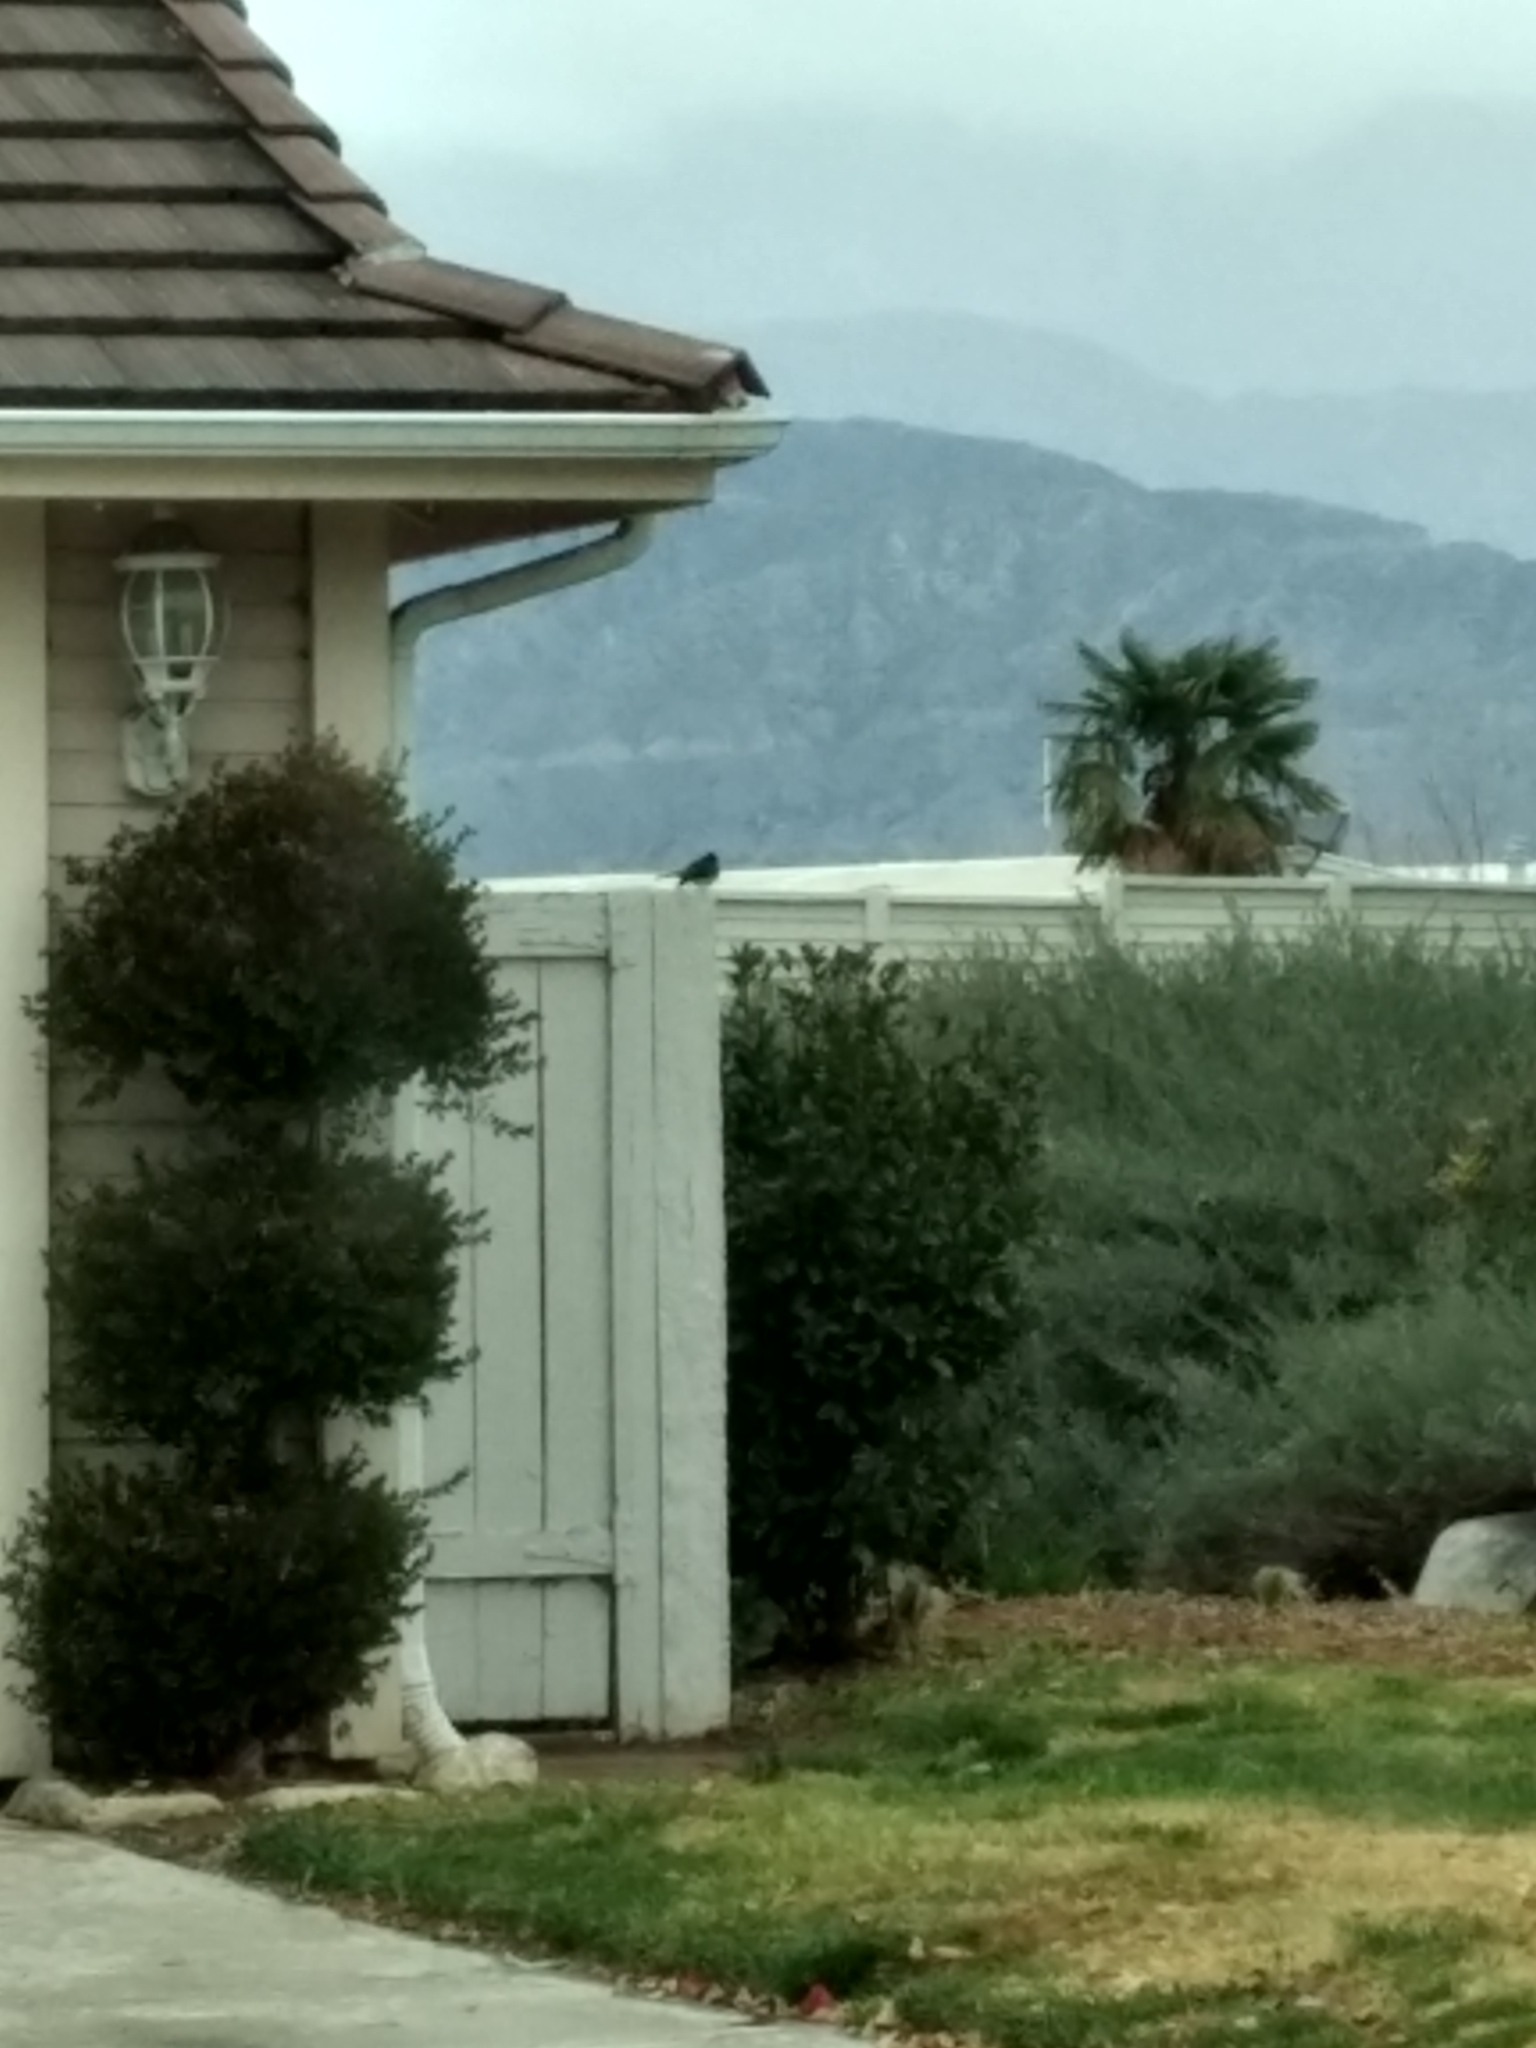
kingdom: Animalia
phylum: Chordata
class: Aves
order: Passeriformes
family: Tyrannidae
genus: Sayornis
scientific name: Sayornis nigricans
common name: Black phoebe
